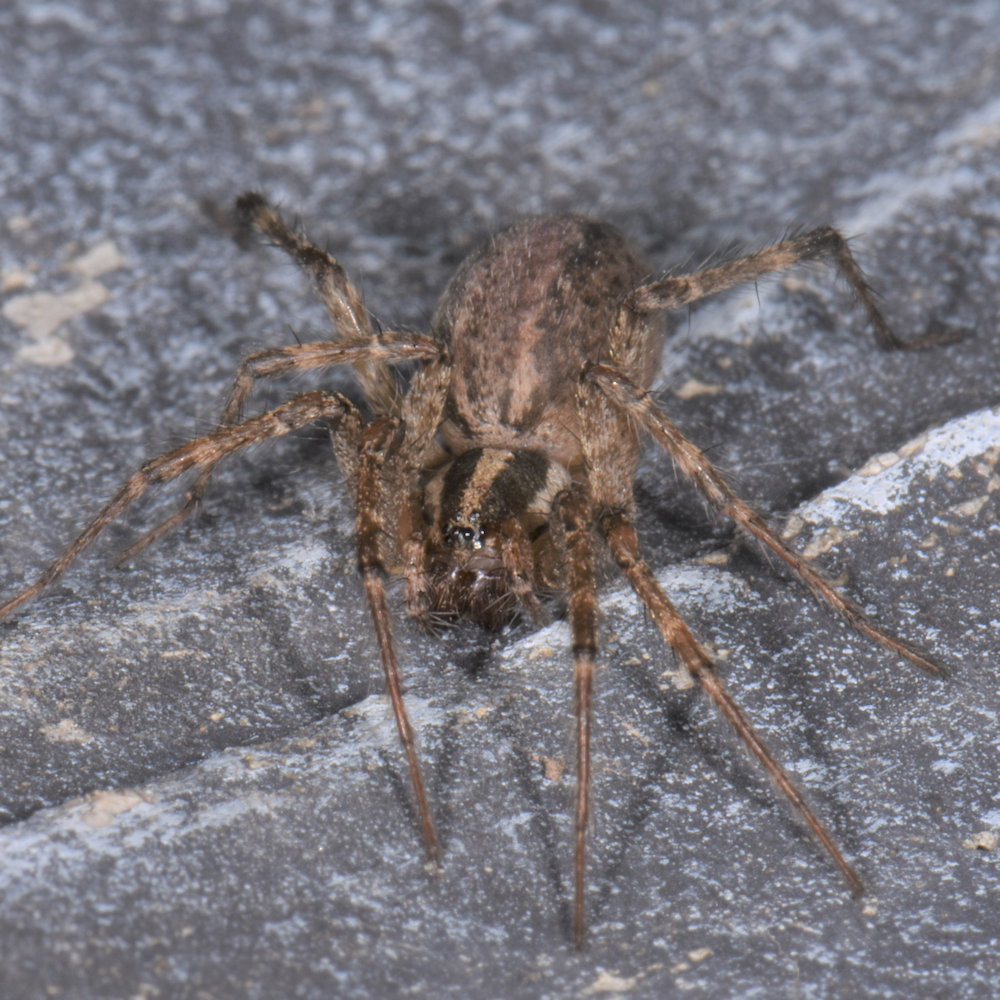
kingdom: Animalia
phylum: Arthropoda
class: Arachnida
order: Araneae
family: Agelenidae
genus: Agelenopsis
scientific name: Agelenopsis
